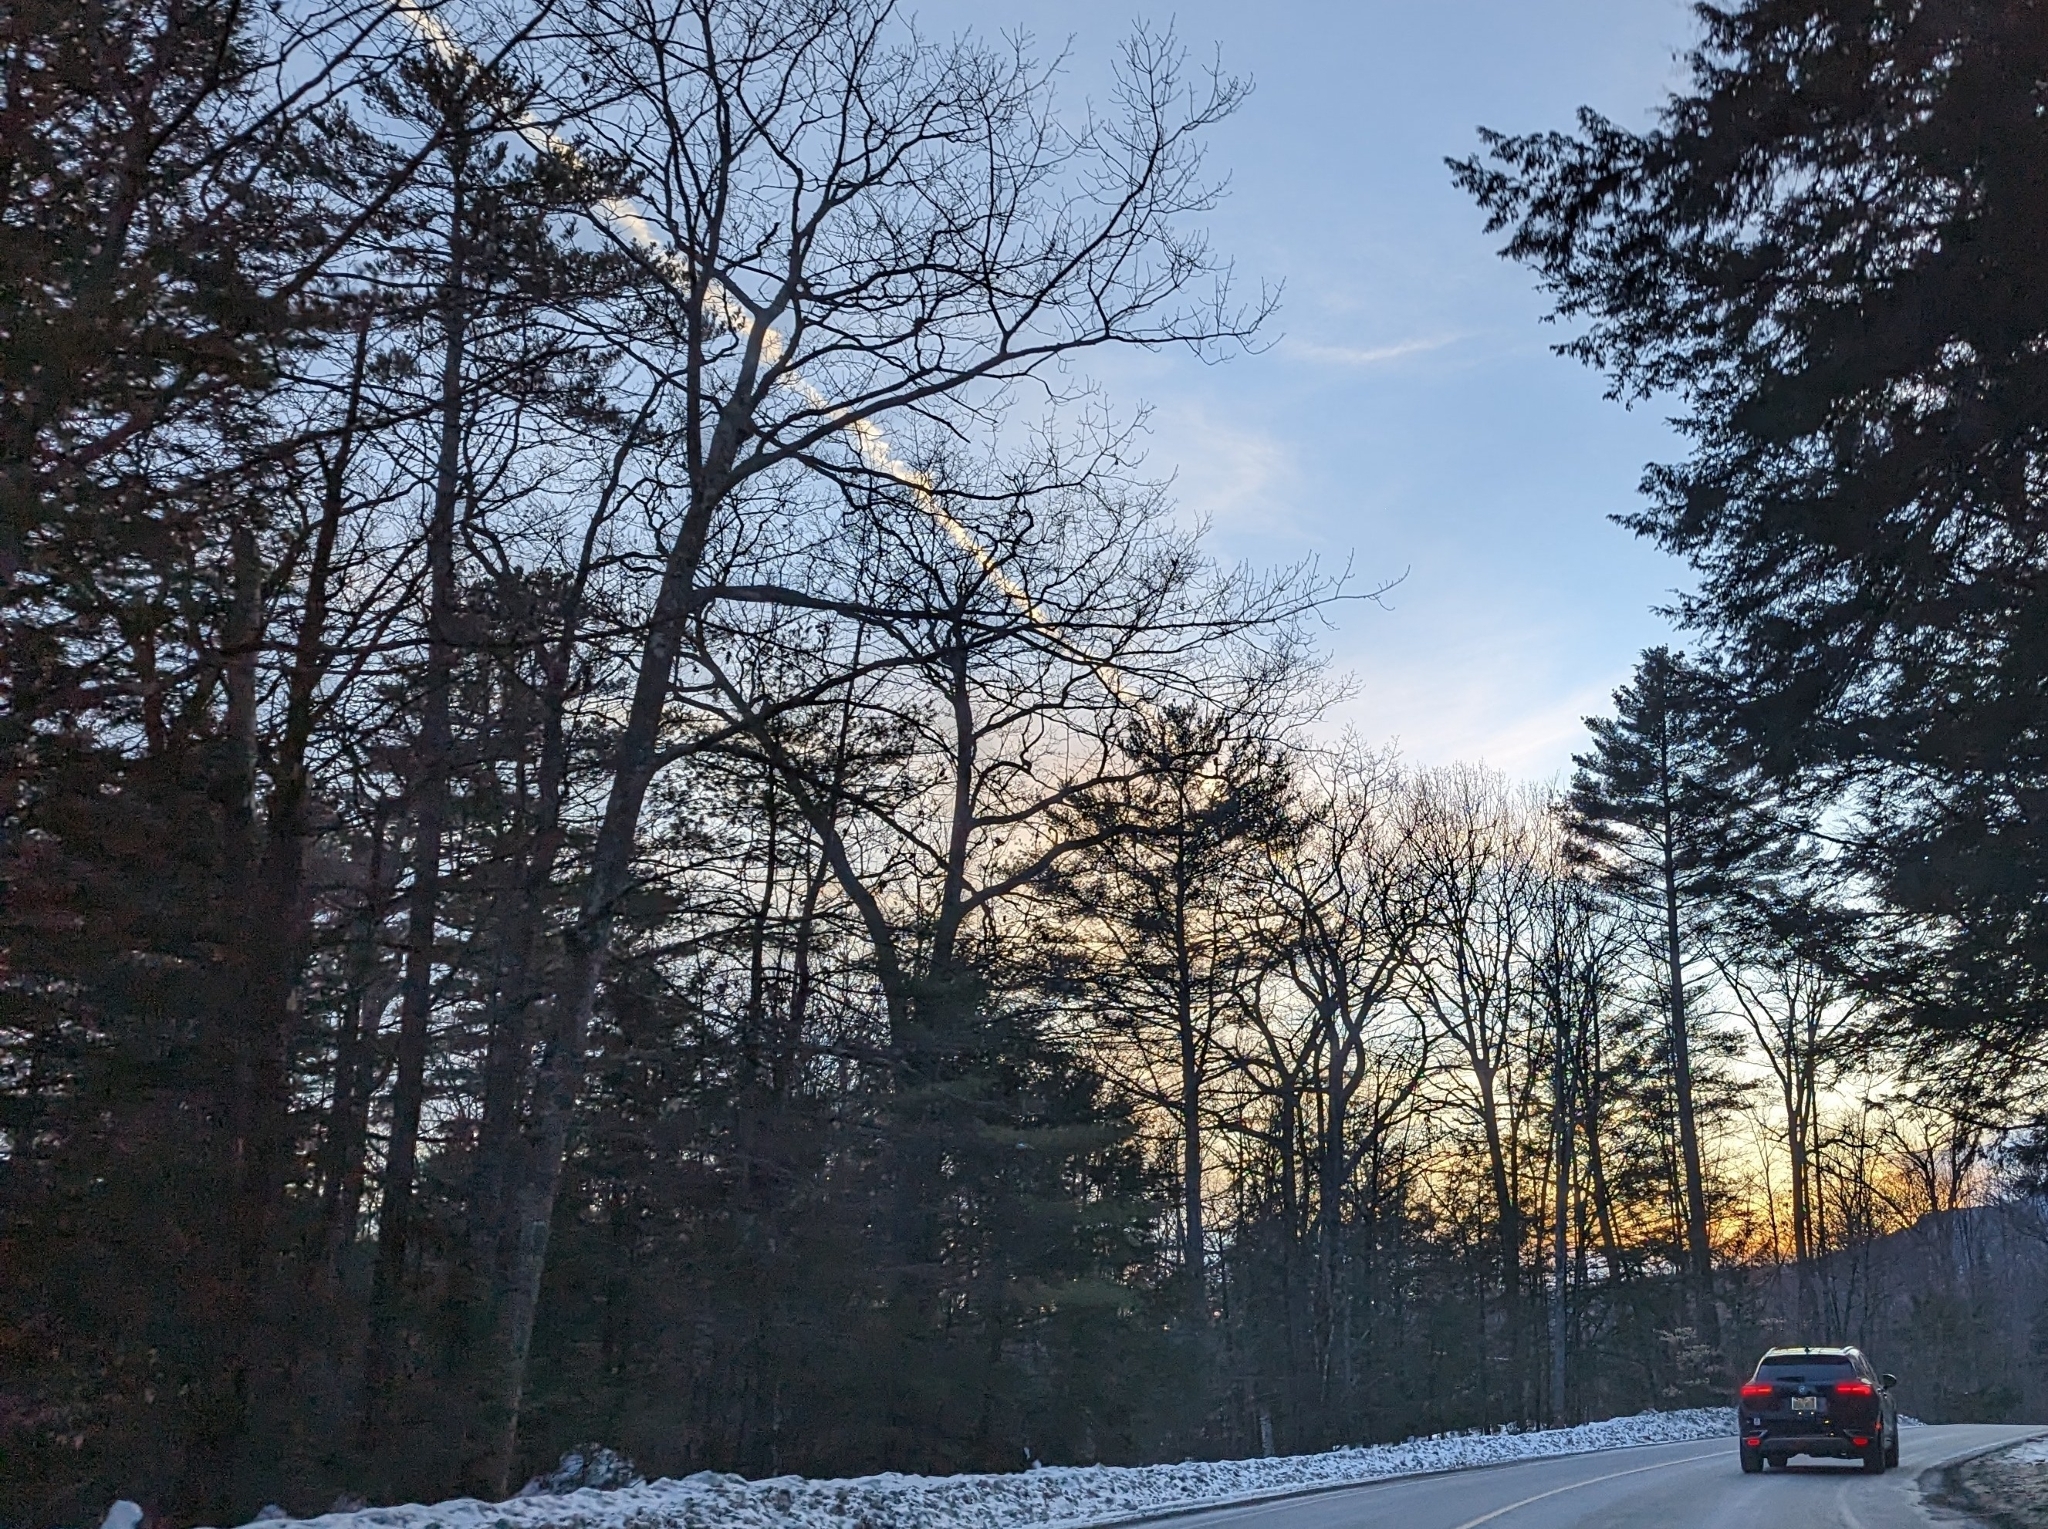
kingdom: Plantae
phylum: Tracheophyta
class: Pinopsida
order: Pinales
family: Pinaceae
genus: Pinus
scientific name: Pinus strobus
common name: Weymouth pine
